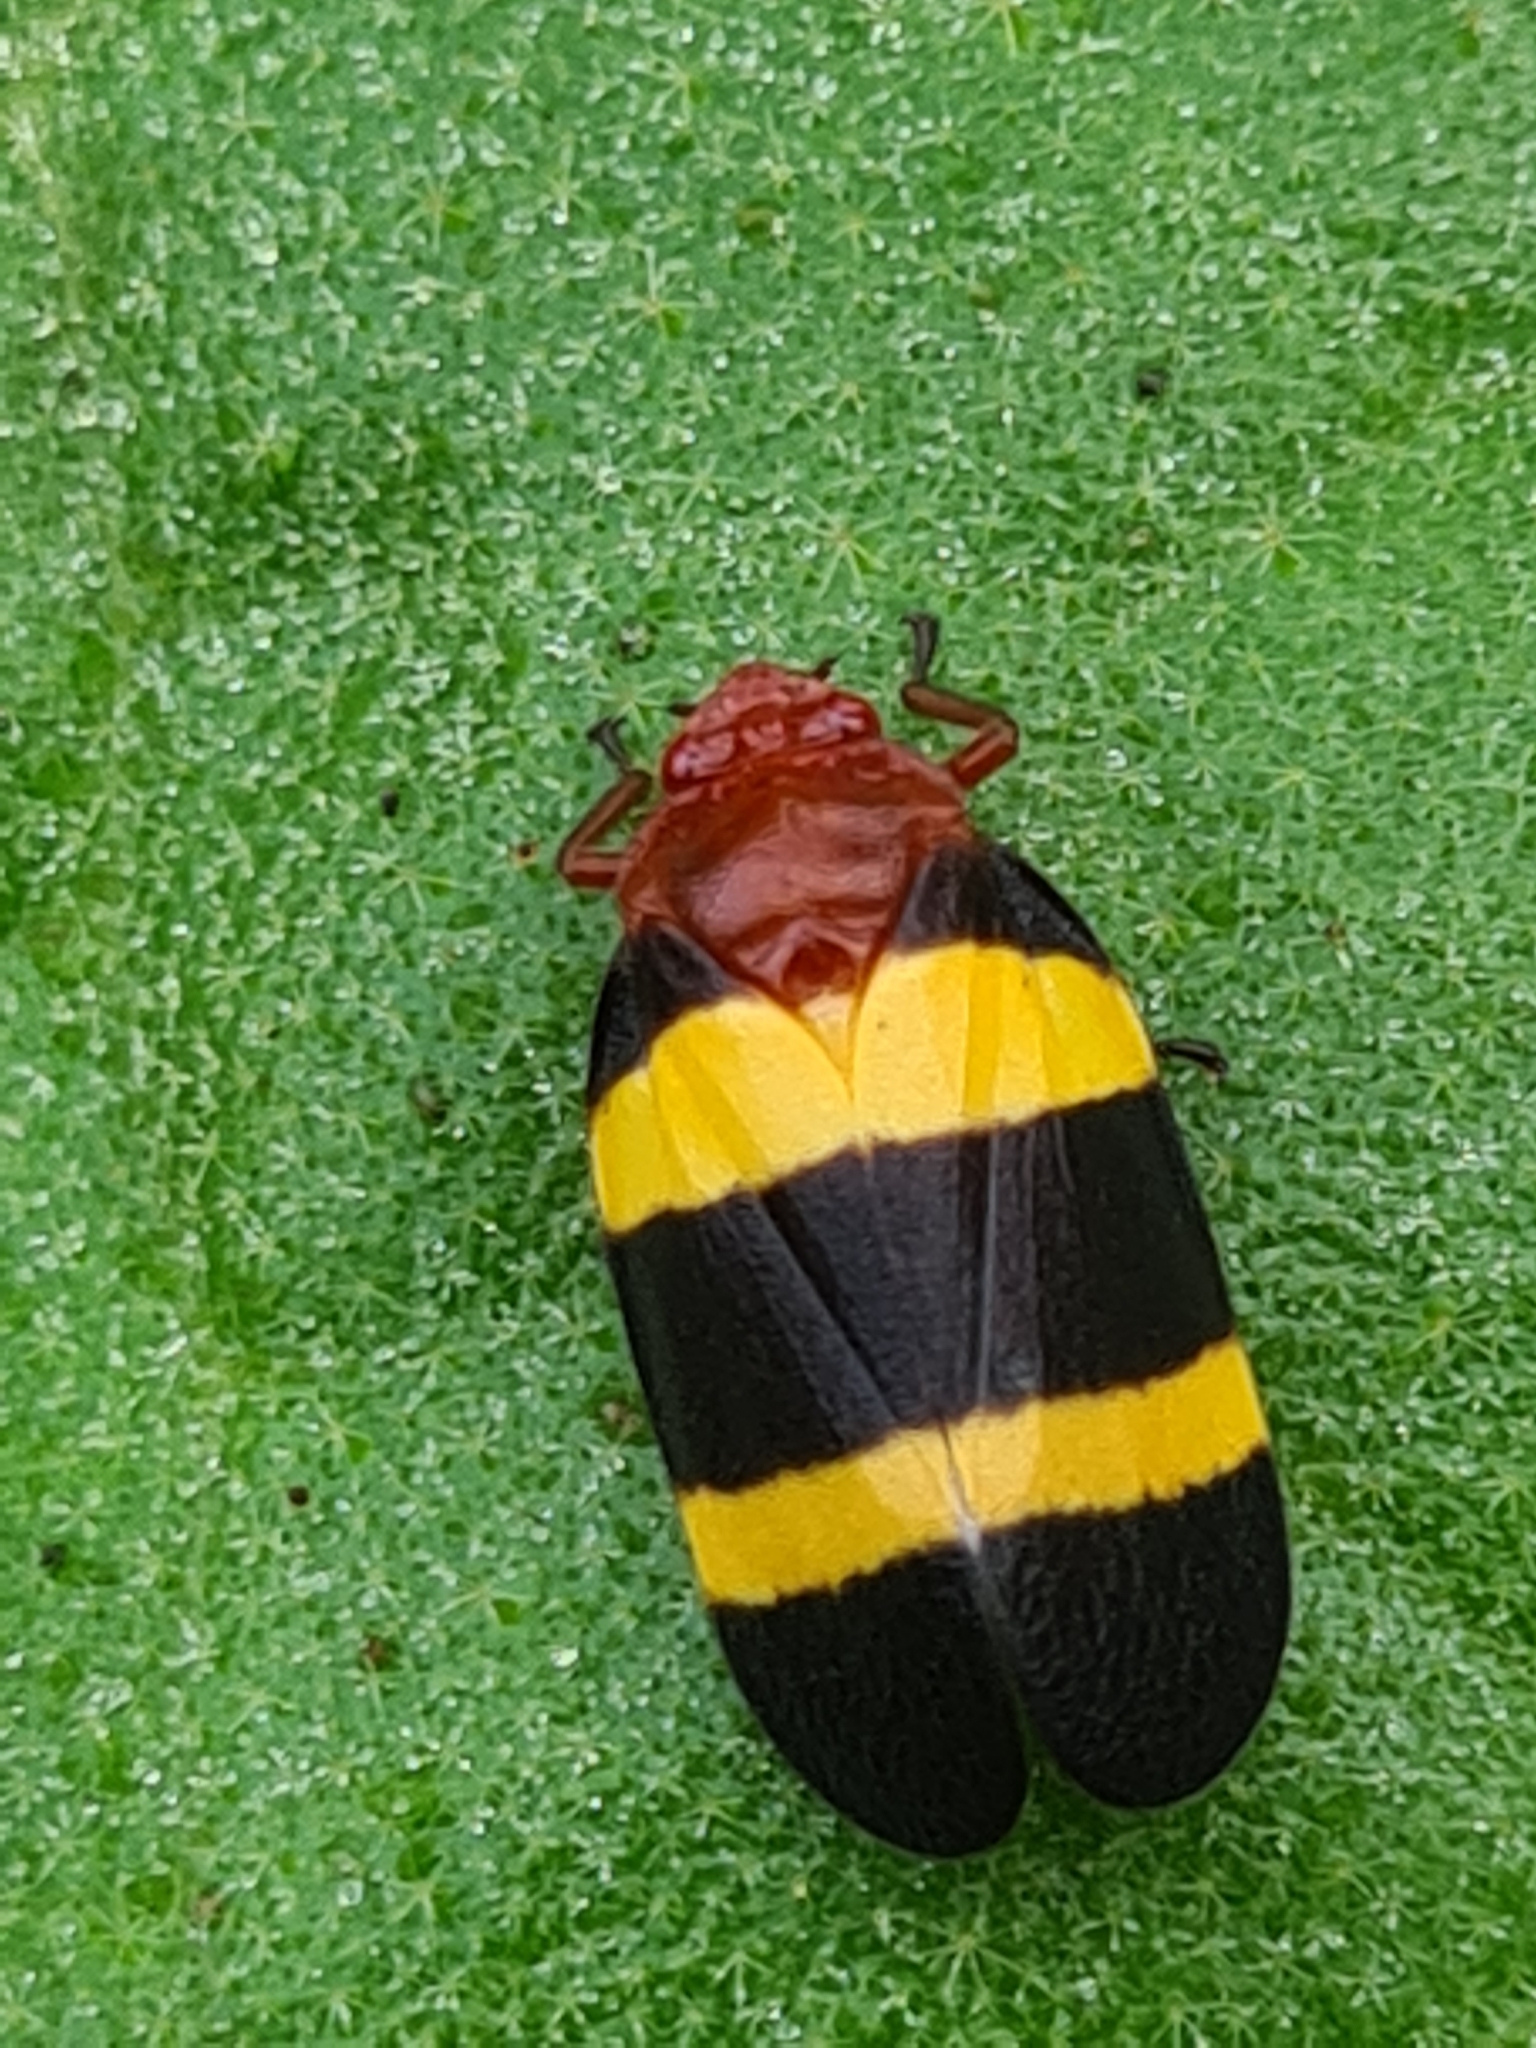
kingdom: Animalia
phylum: Arthropoda
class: Insecta
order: Hemiptera
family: Cercopidae
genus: Sphenorhina
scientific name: Sphenorhina rubra
